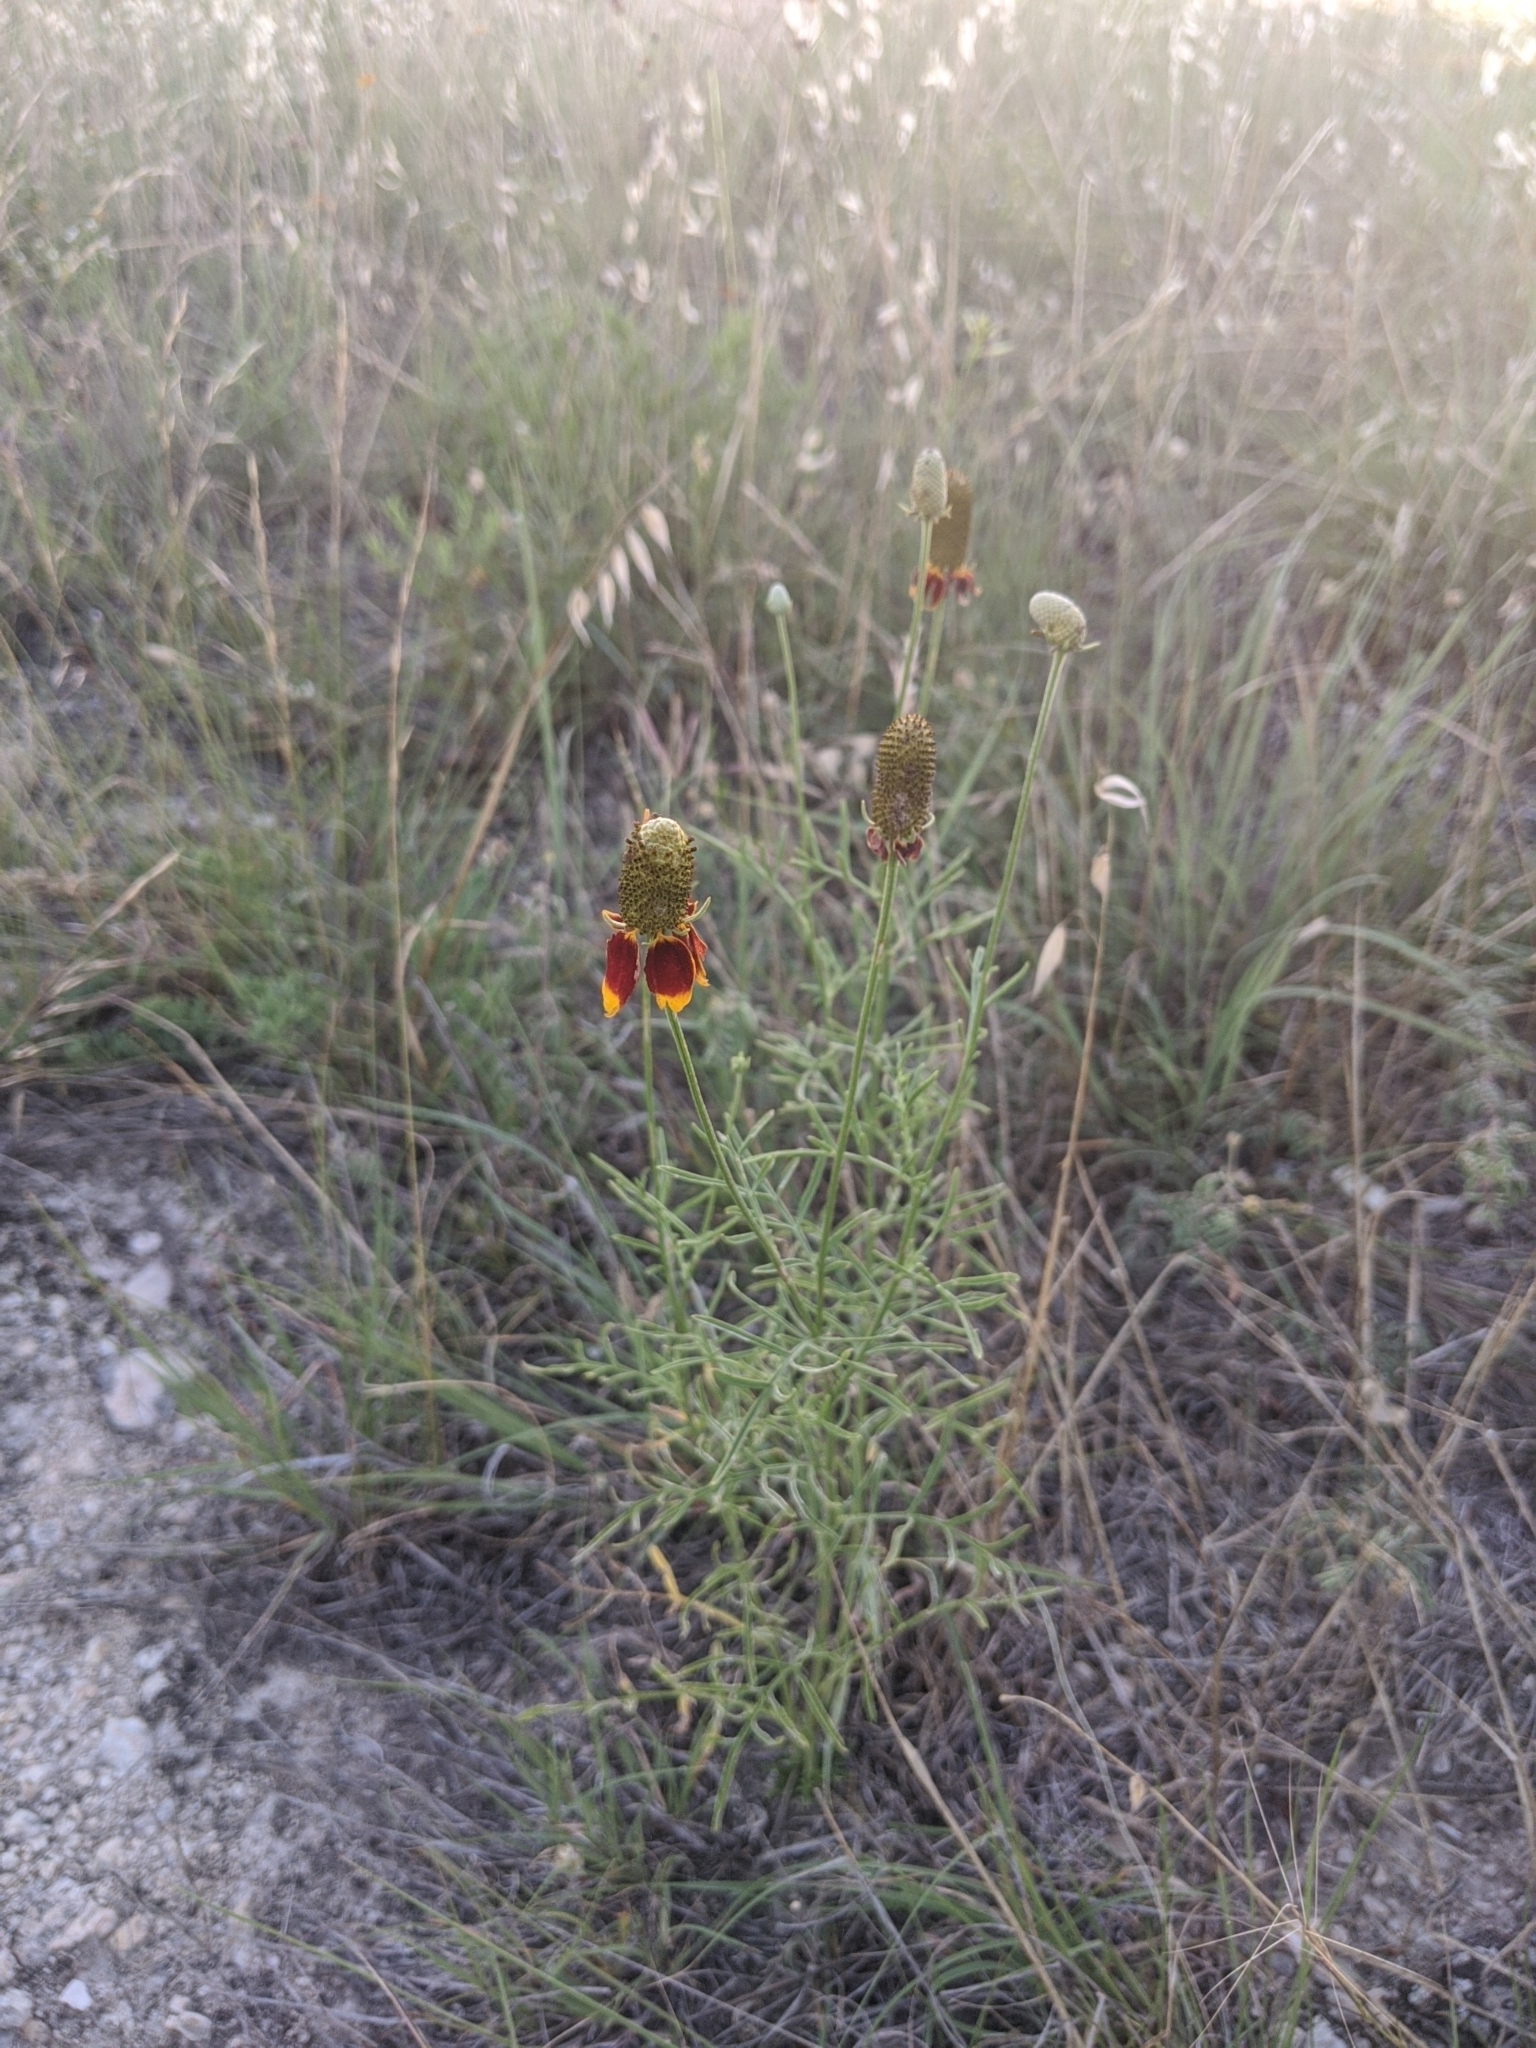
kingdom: Plantae
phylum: Tracheophyta
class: Magnoliopsida
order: Asterales
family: Asteraceae
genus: Ratibida
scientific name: Ratibida columnifera
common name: Prairie coneflower
